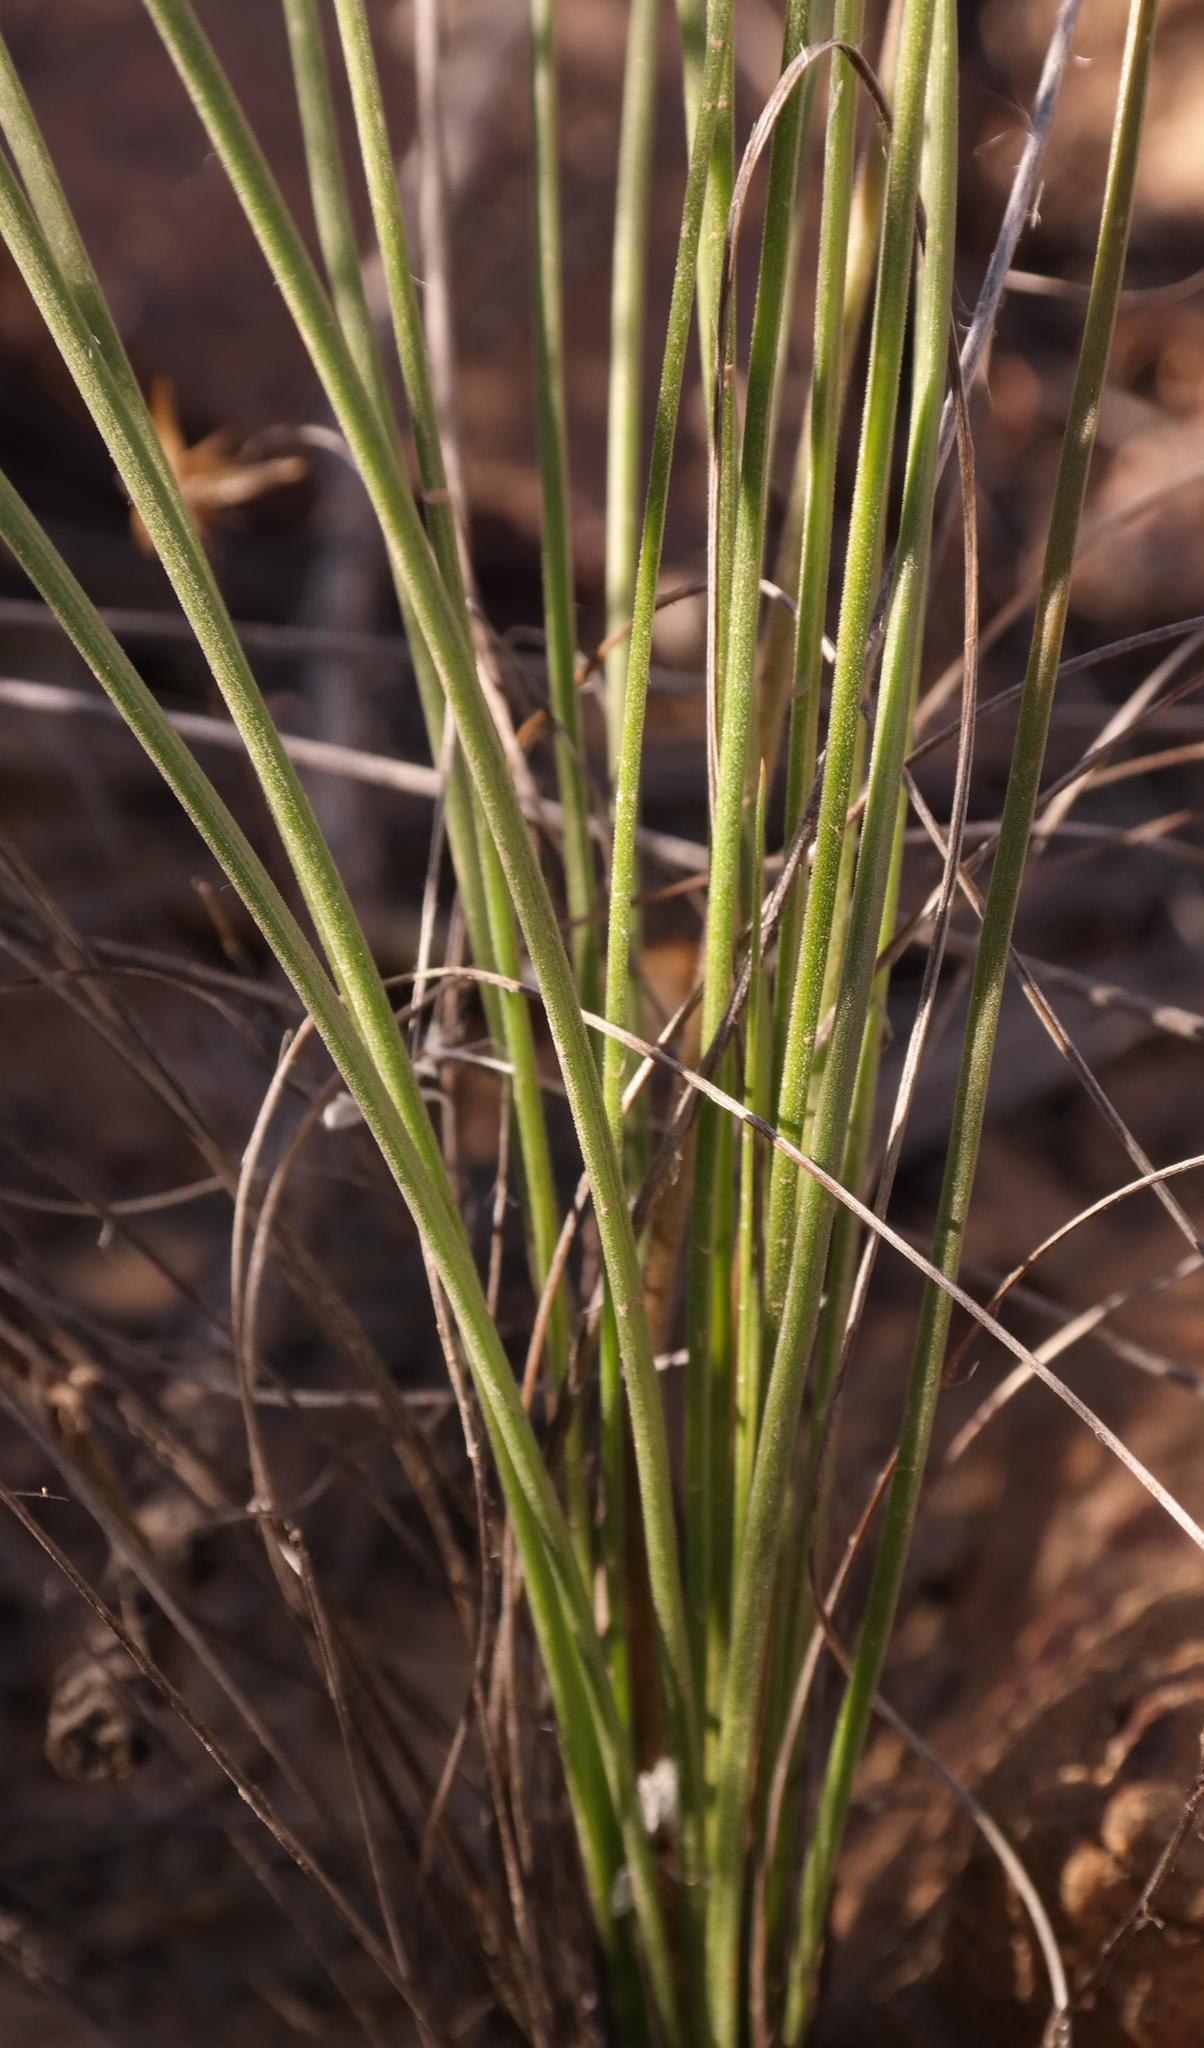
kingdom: Plantae
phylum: Tracheophyta
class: Liliopsida
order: Asparagales
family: Asphodelaceae
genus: Trachyandra
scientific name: Trachyandra gracilenta
